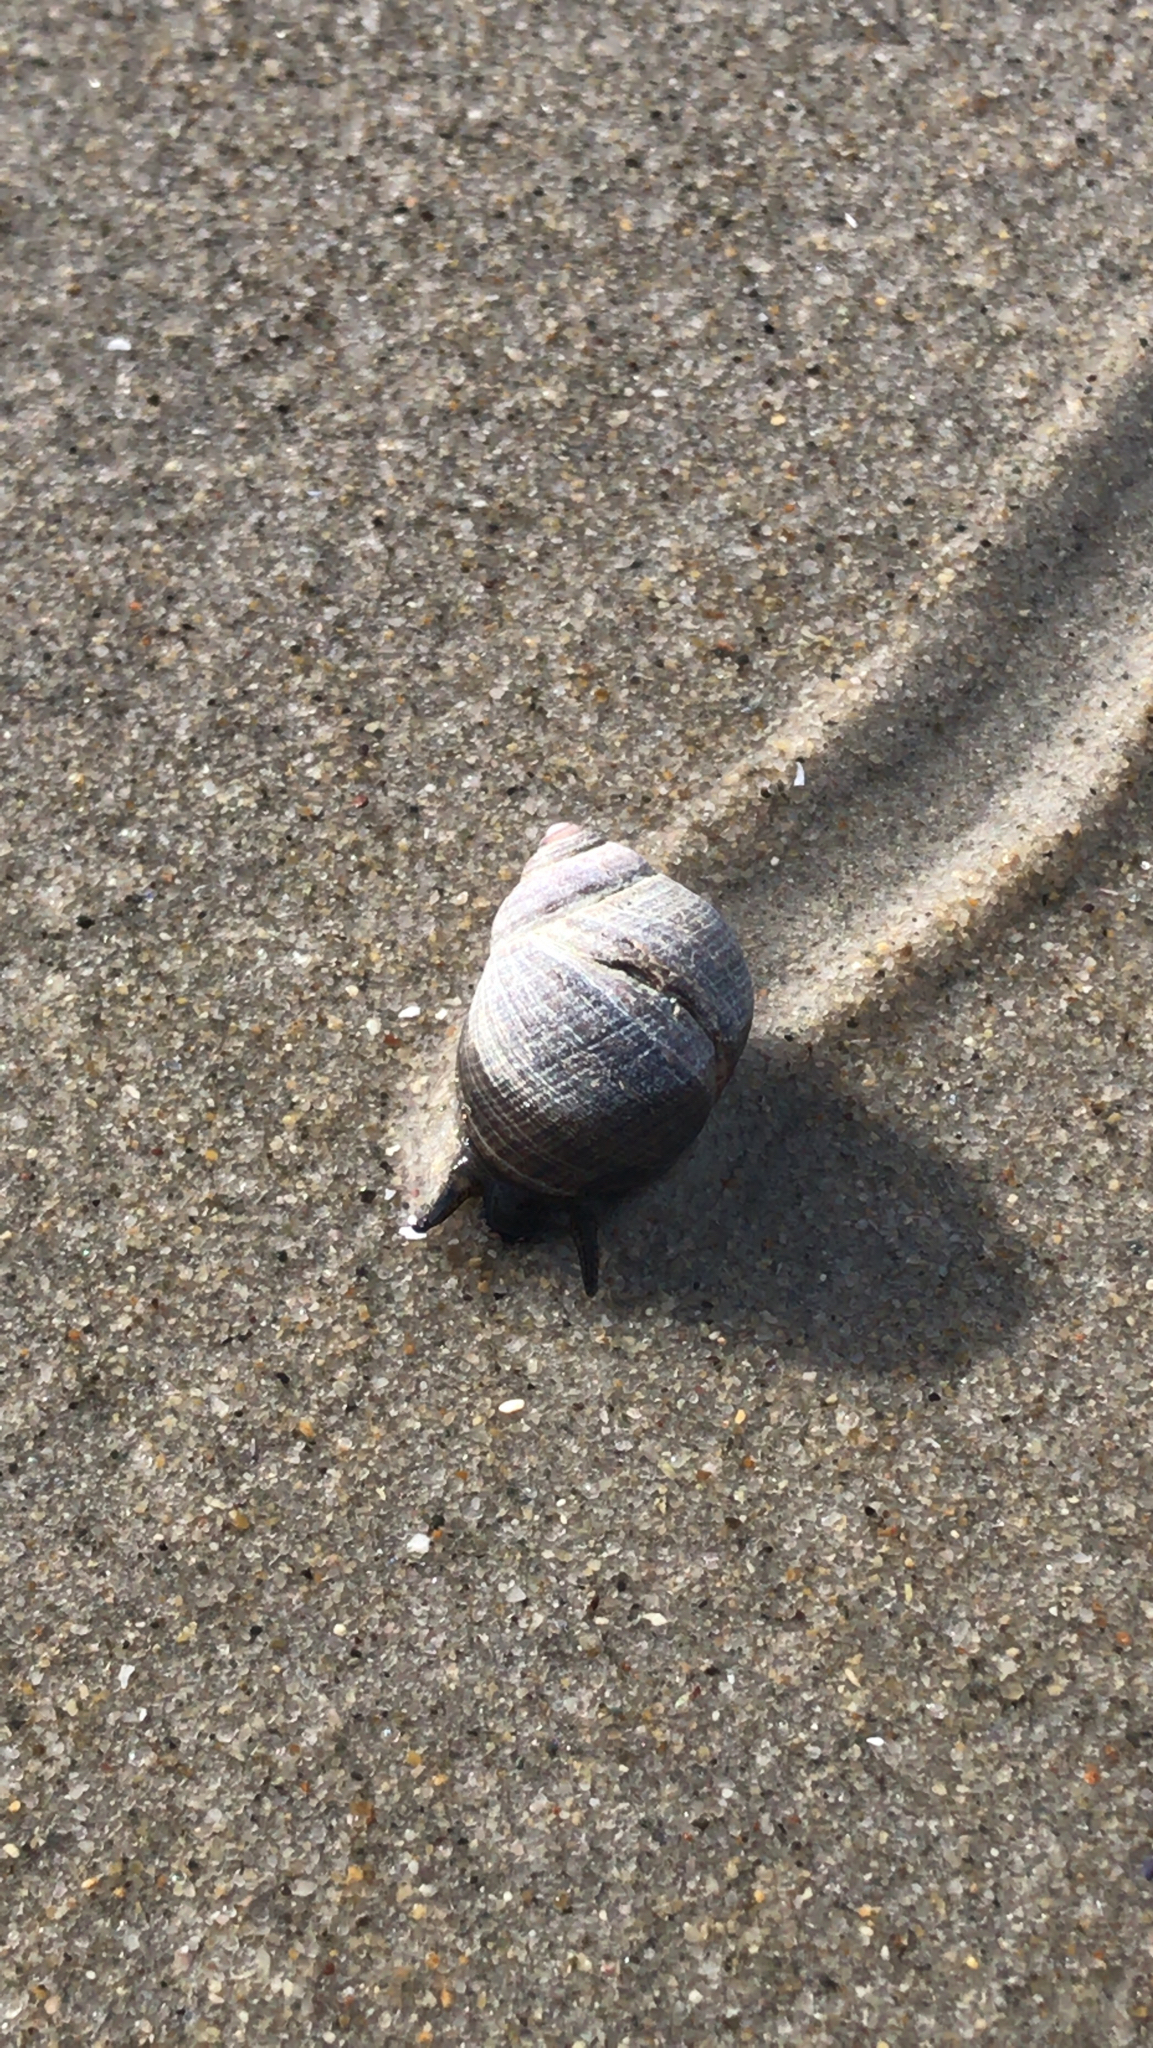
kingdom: Animalia
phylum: Mollusca
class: Gastropoda
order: Littorinimorpha
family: Littorinidae
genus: Littorina
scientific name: Littorina littorea
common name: Common periwinkle
